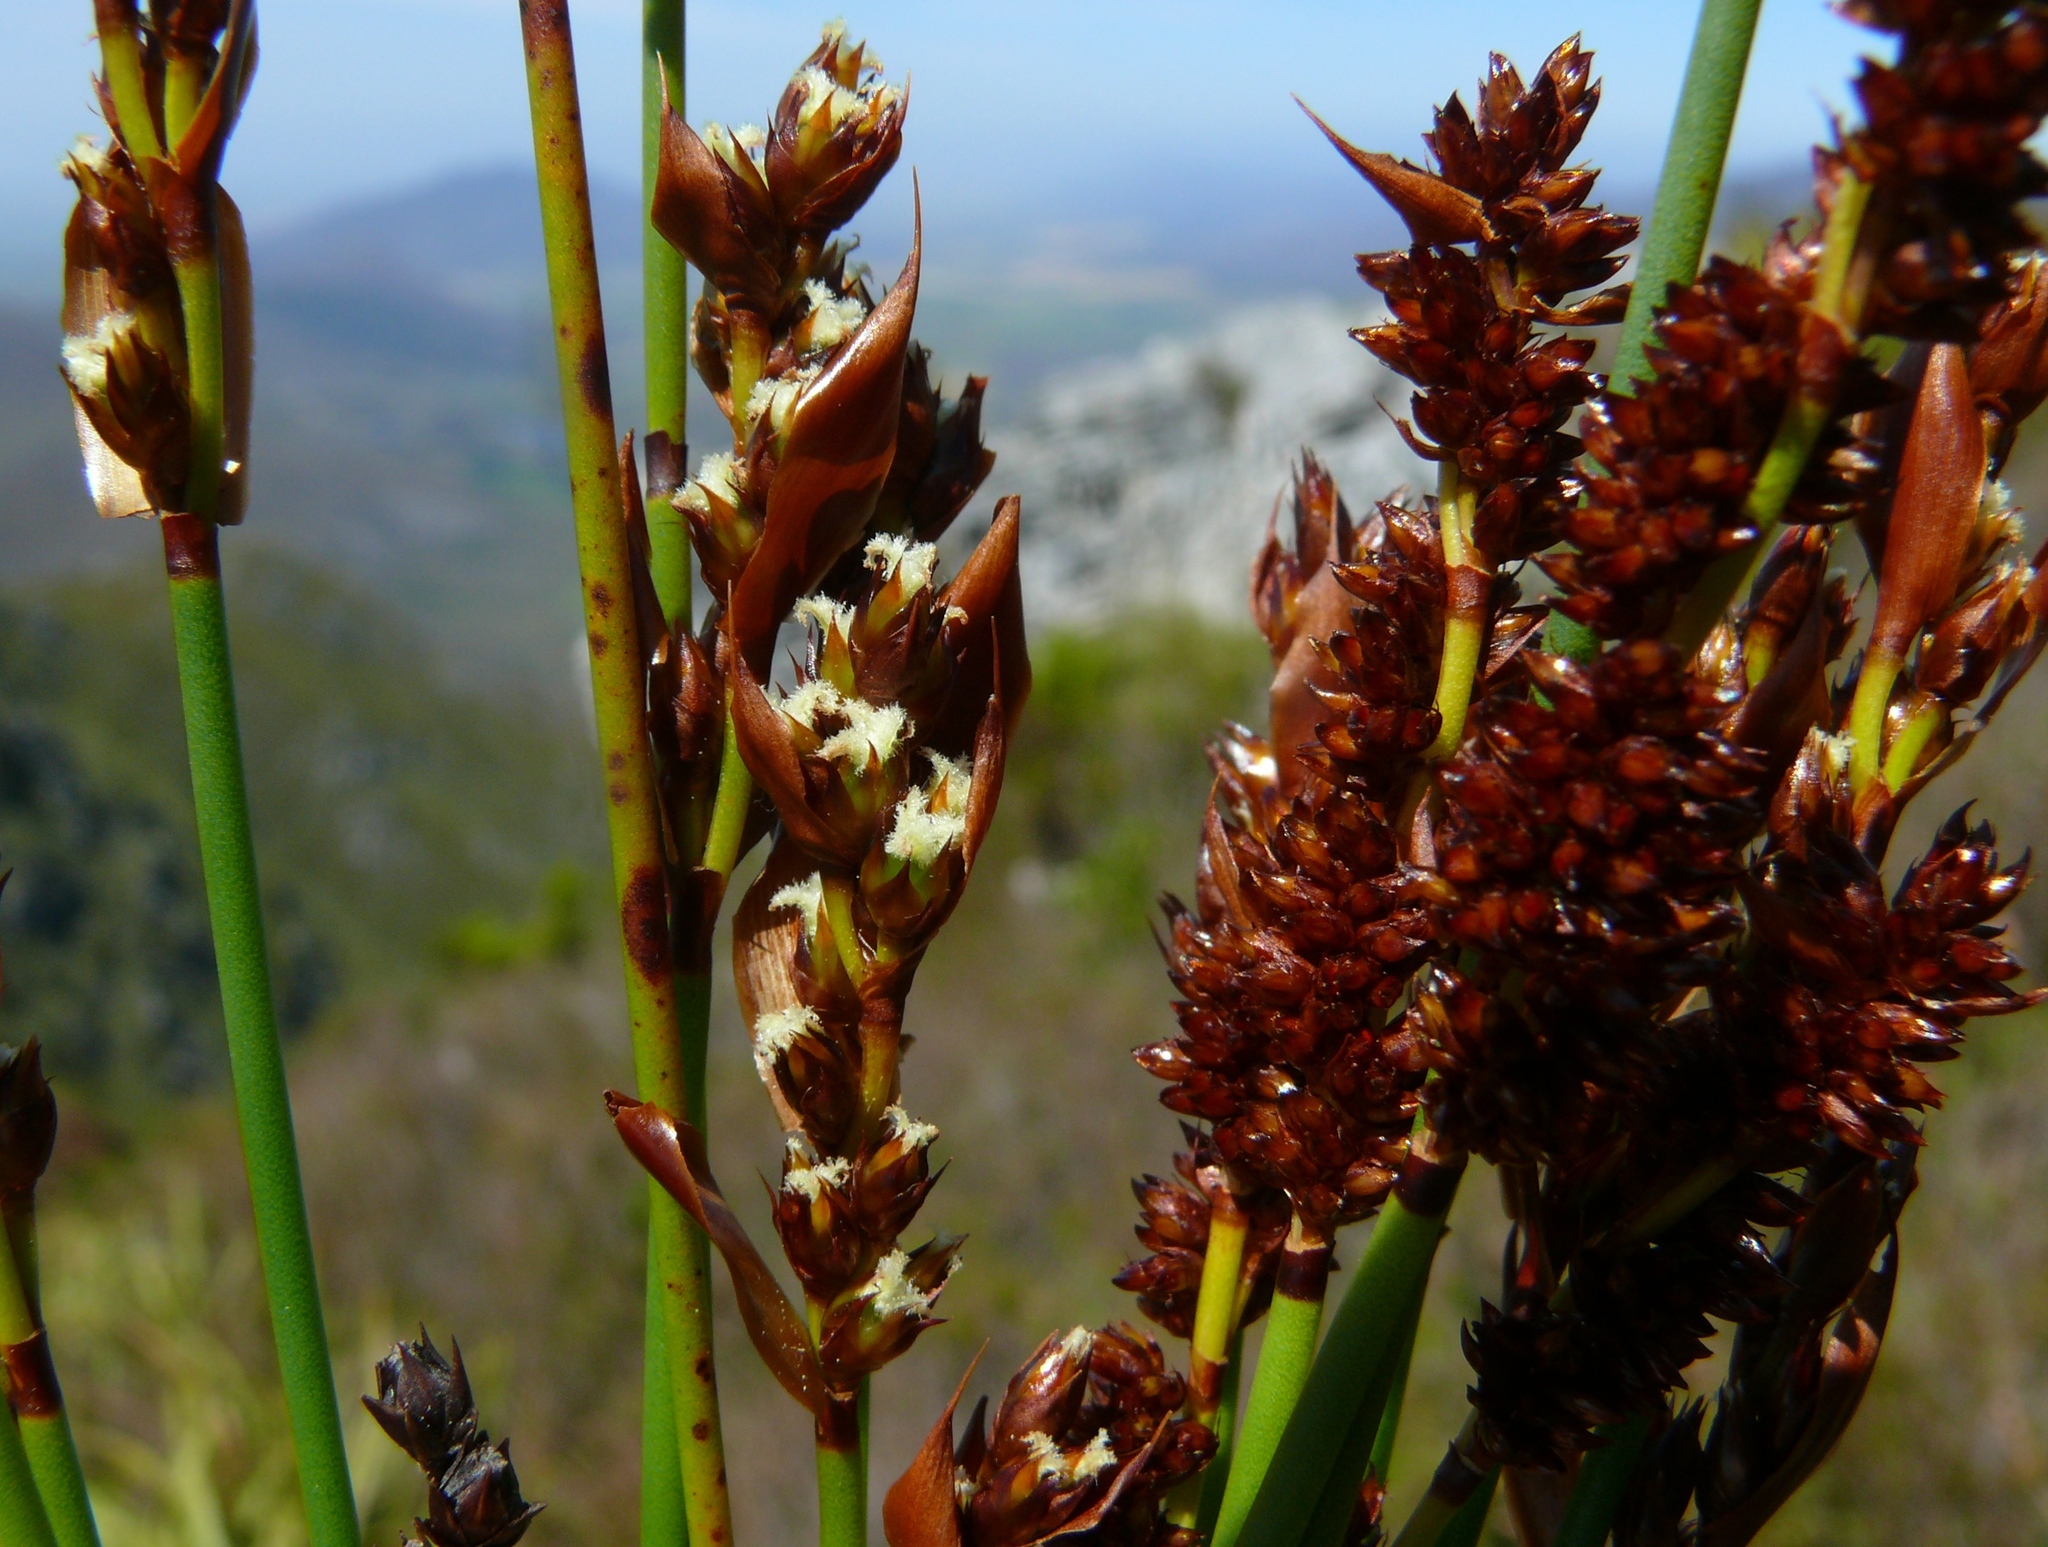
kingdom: Plantae
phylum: Tracheophyta
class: Liliopsida
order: Poales
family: Restionaceae
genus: Elegia
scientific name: Elegia ebracteata
